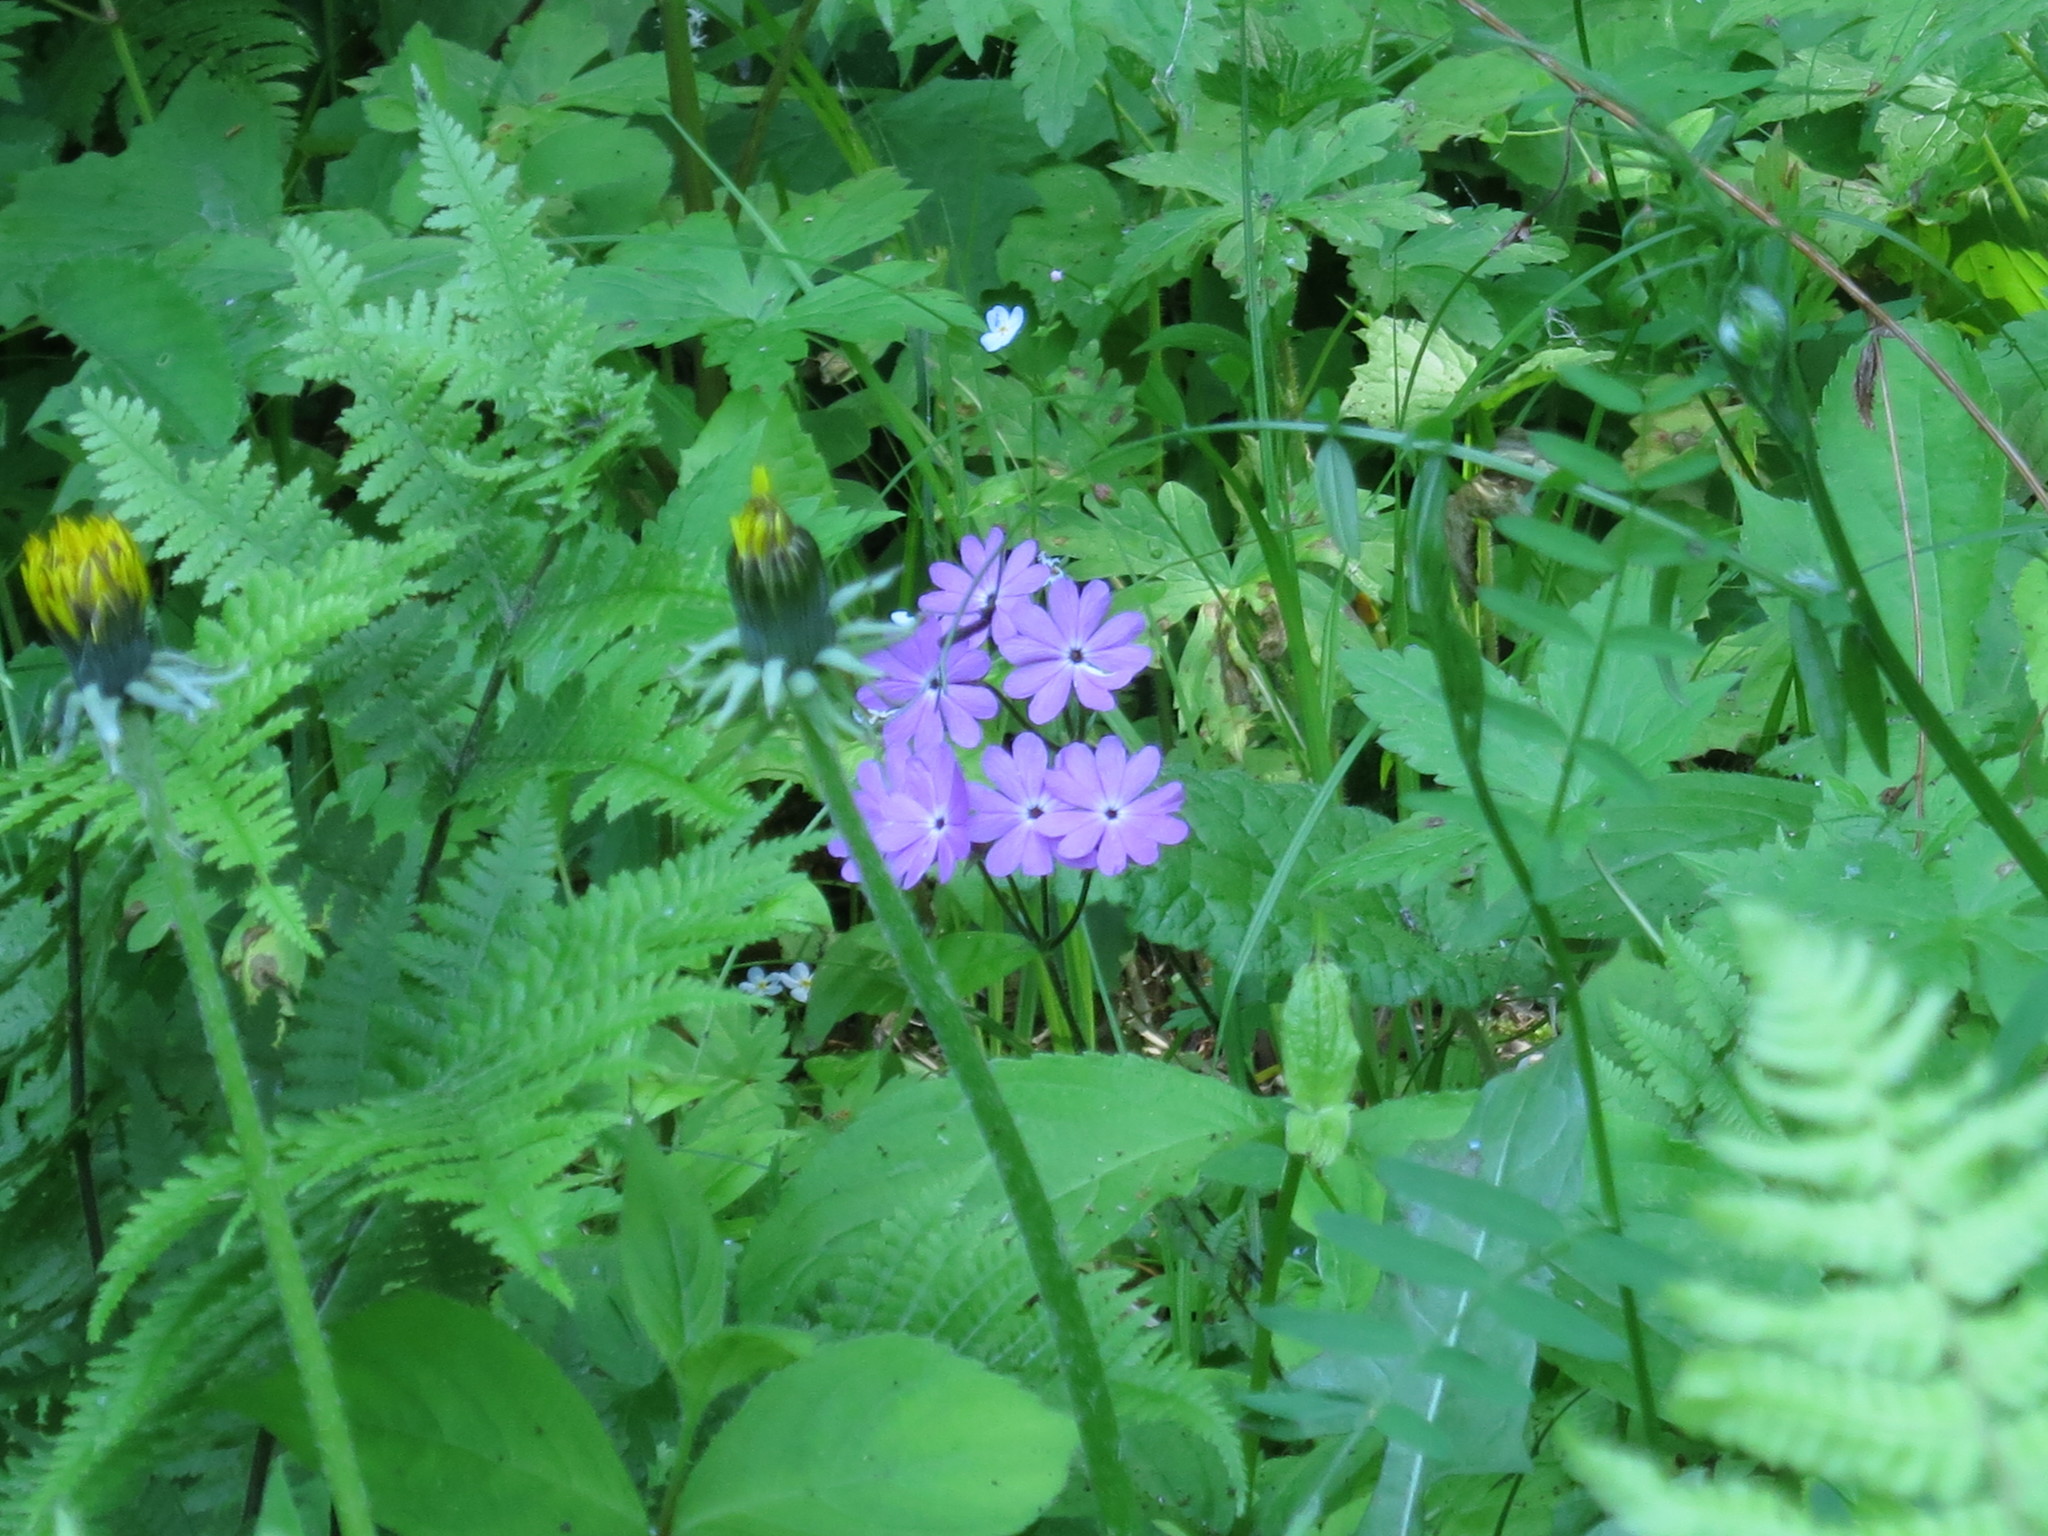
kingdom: Plantae
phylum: Tracheophyta
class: Magnoliopsida
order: Ericales
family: Primulaceae
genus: Primula
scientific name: Primula sieboldii
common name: Japanese primrose
